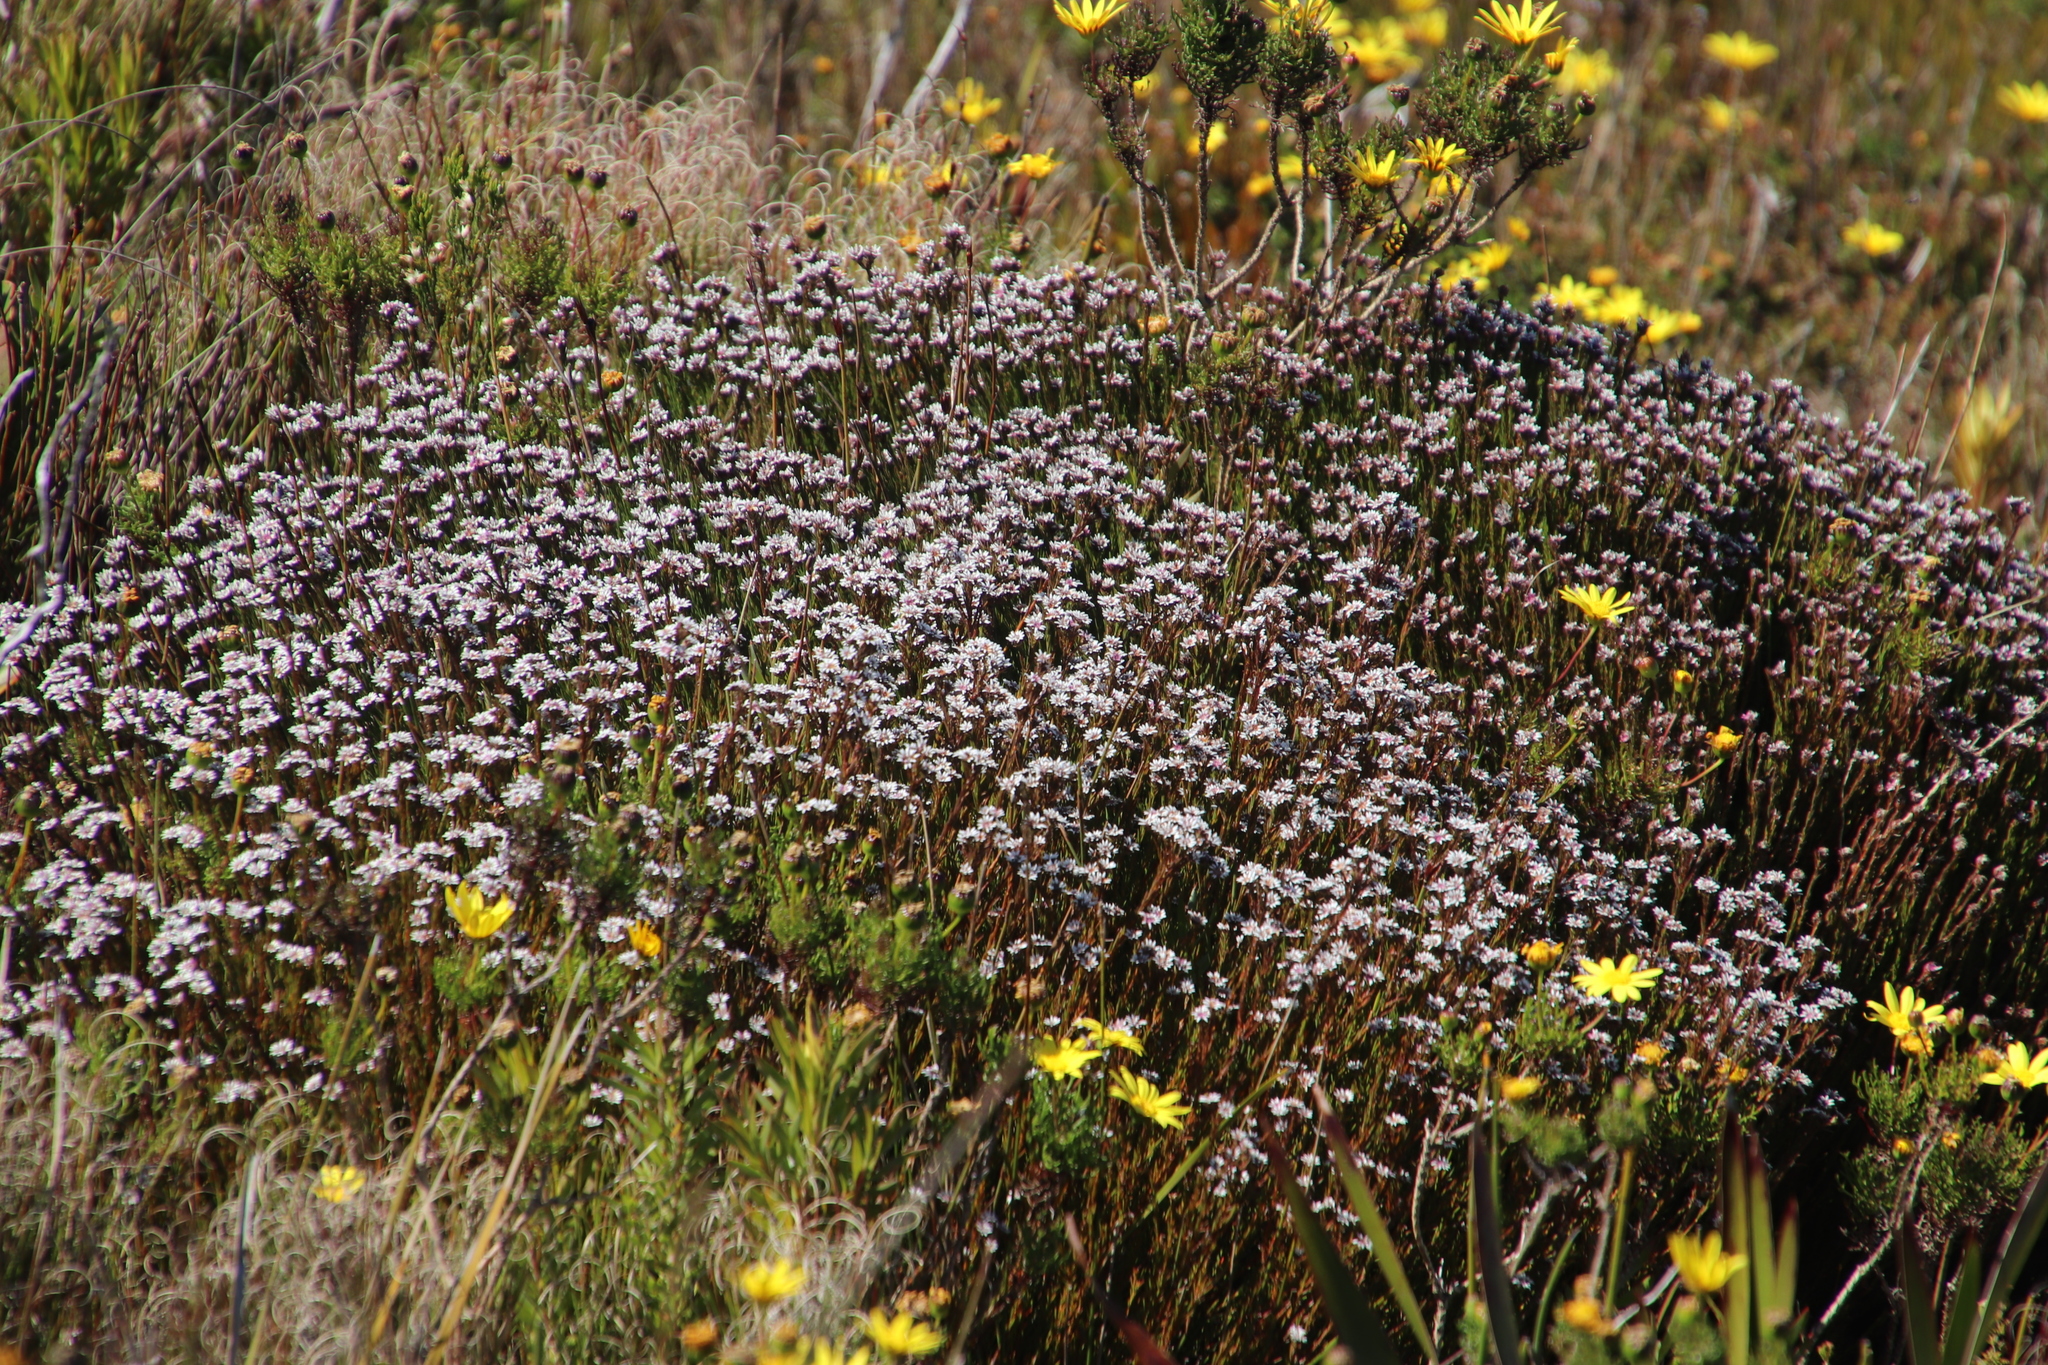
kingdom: Plantae
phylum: Tracheophyta
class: Magnoliopsida
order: Bruniales
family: Bruniaceae
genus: Staavia
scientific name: Staavia radiata
